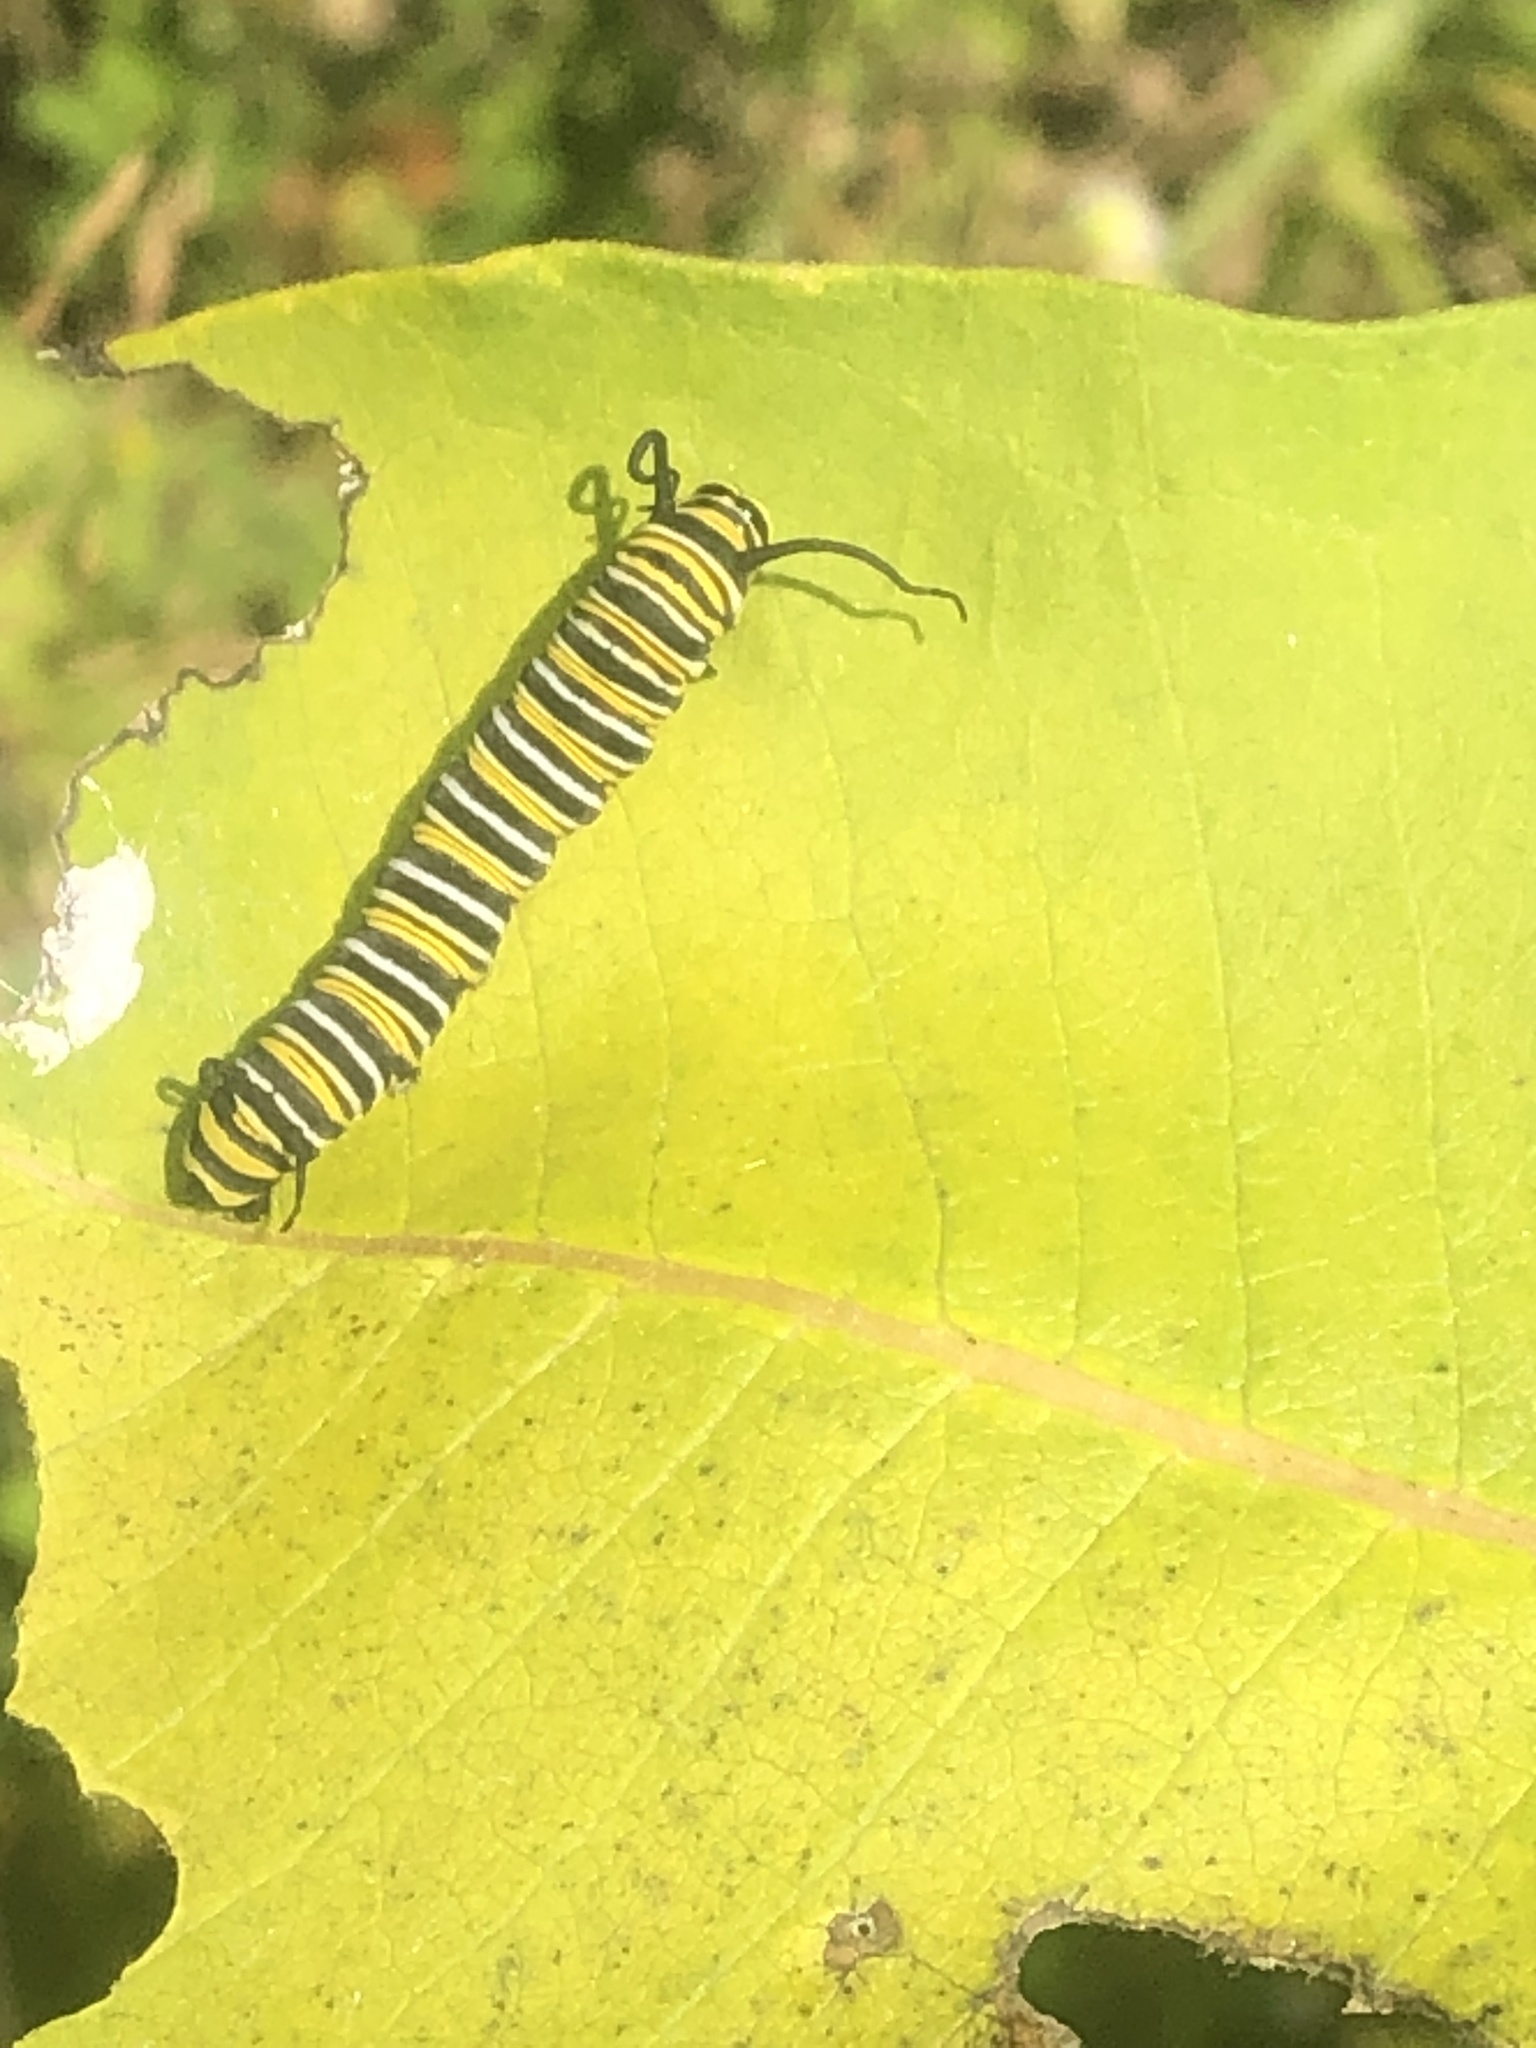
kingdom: Animalia
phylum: Arthropoda
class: Insecta
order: Lepidoptera
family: Nymphalidae
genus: Danaus
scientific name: Danaus plexippus
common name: Monarch
